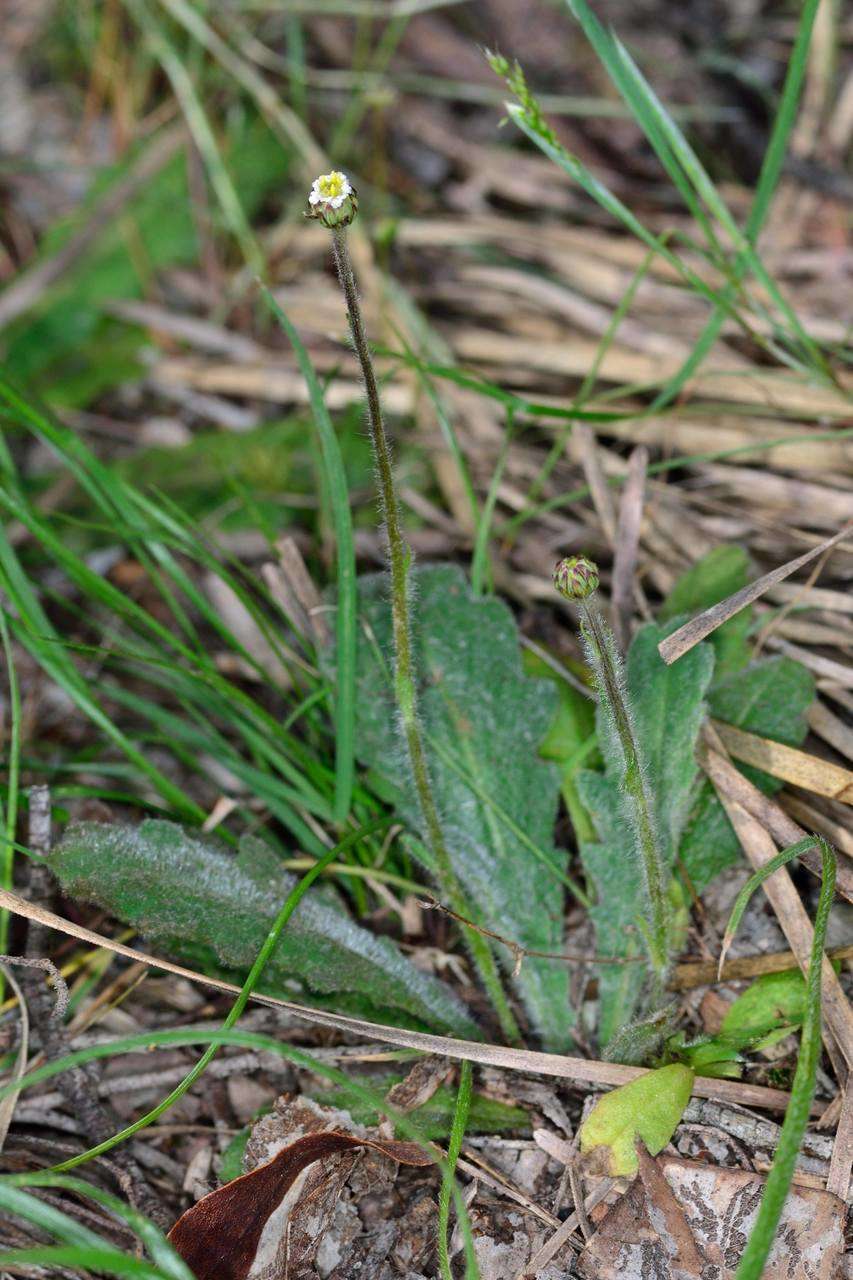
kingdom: Plantae
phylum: Tracheophyta
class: Magnoliopsida
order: Asterales
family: Asteraceae
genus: Lagenophora
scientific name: Lagenophora huegelii
